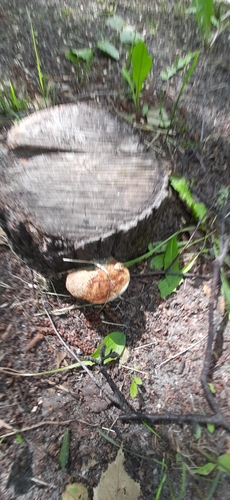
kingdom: Fungi
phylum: Basidiomycota
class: Agaricomycetes
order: Polyporales
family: Fomitopsidaceae
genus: Fomitopsis
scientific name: Fomitopsis pinicola
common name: Red-belted bracket
